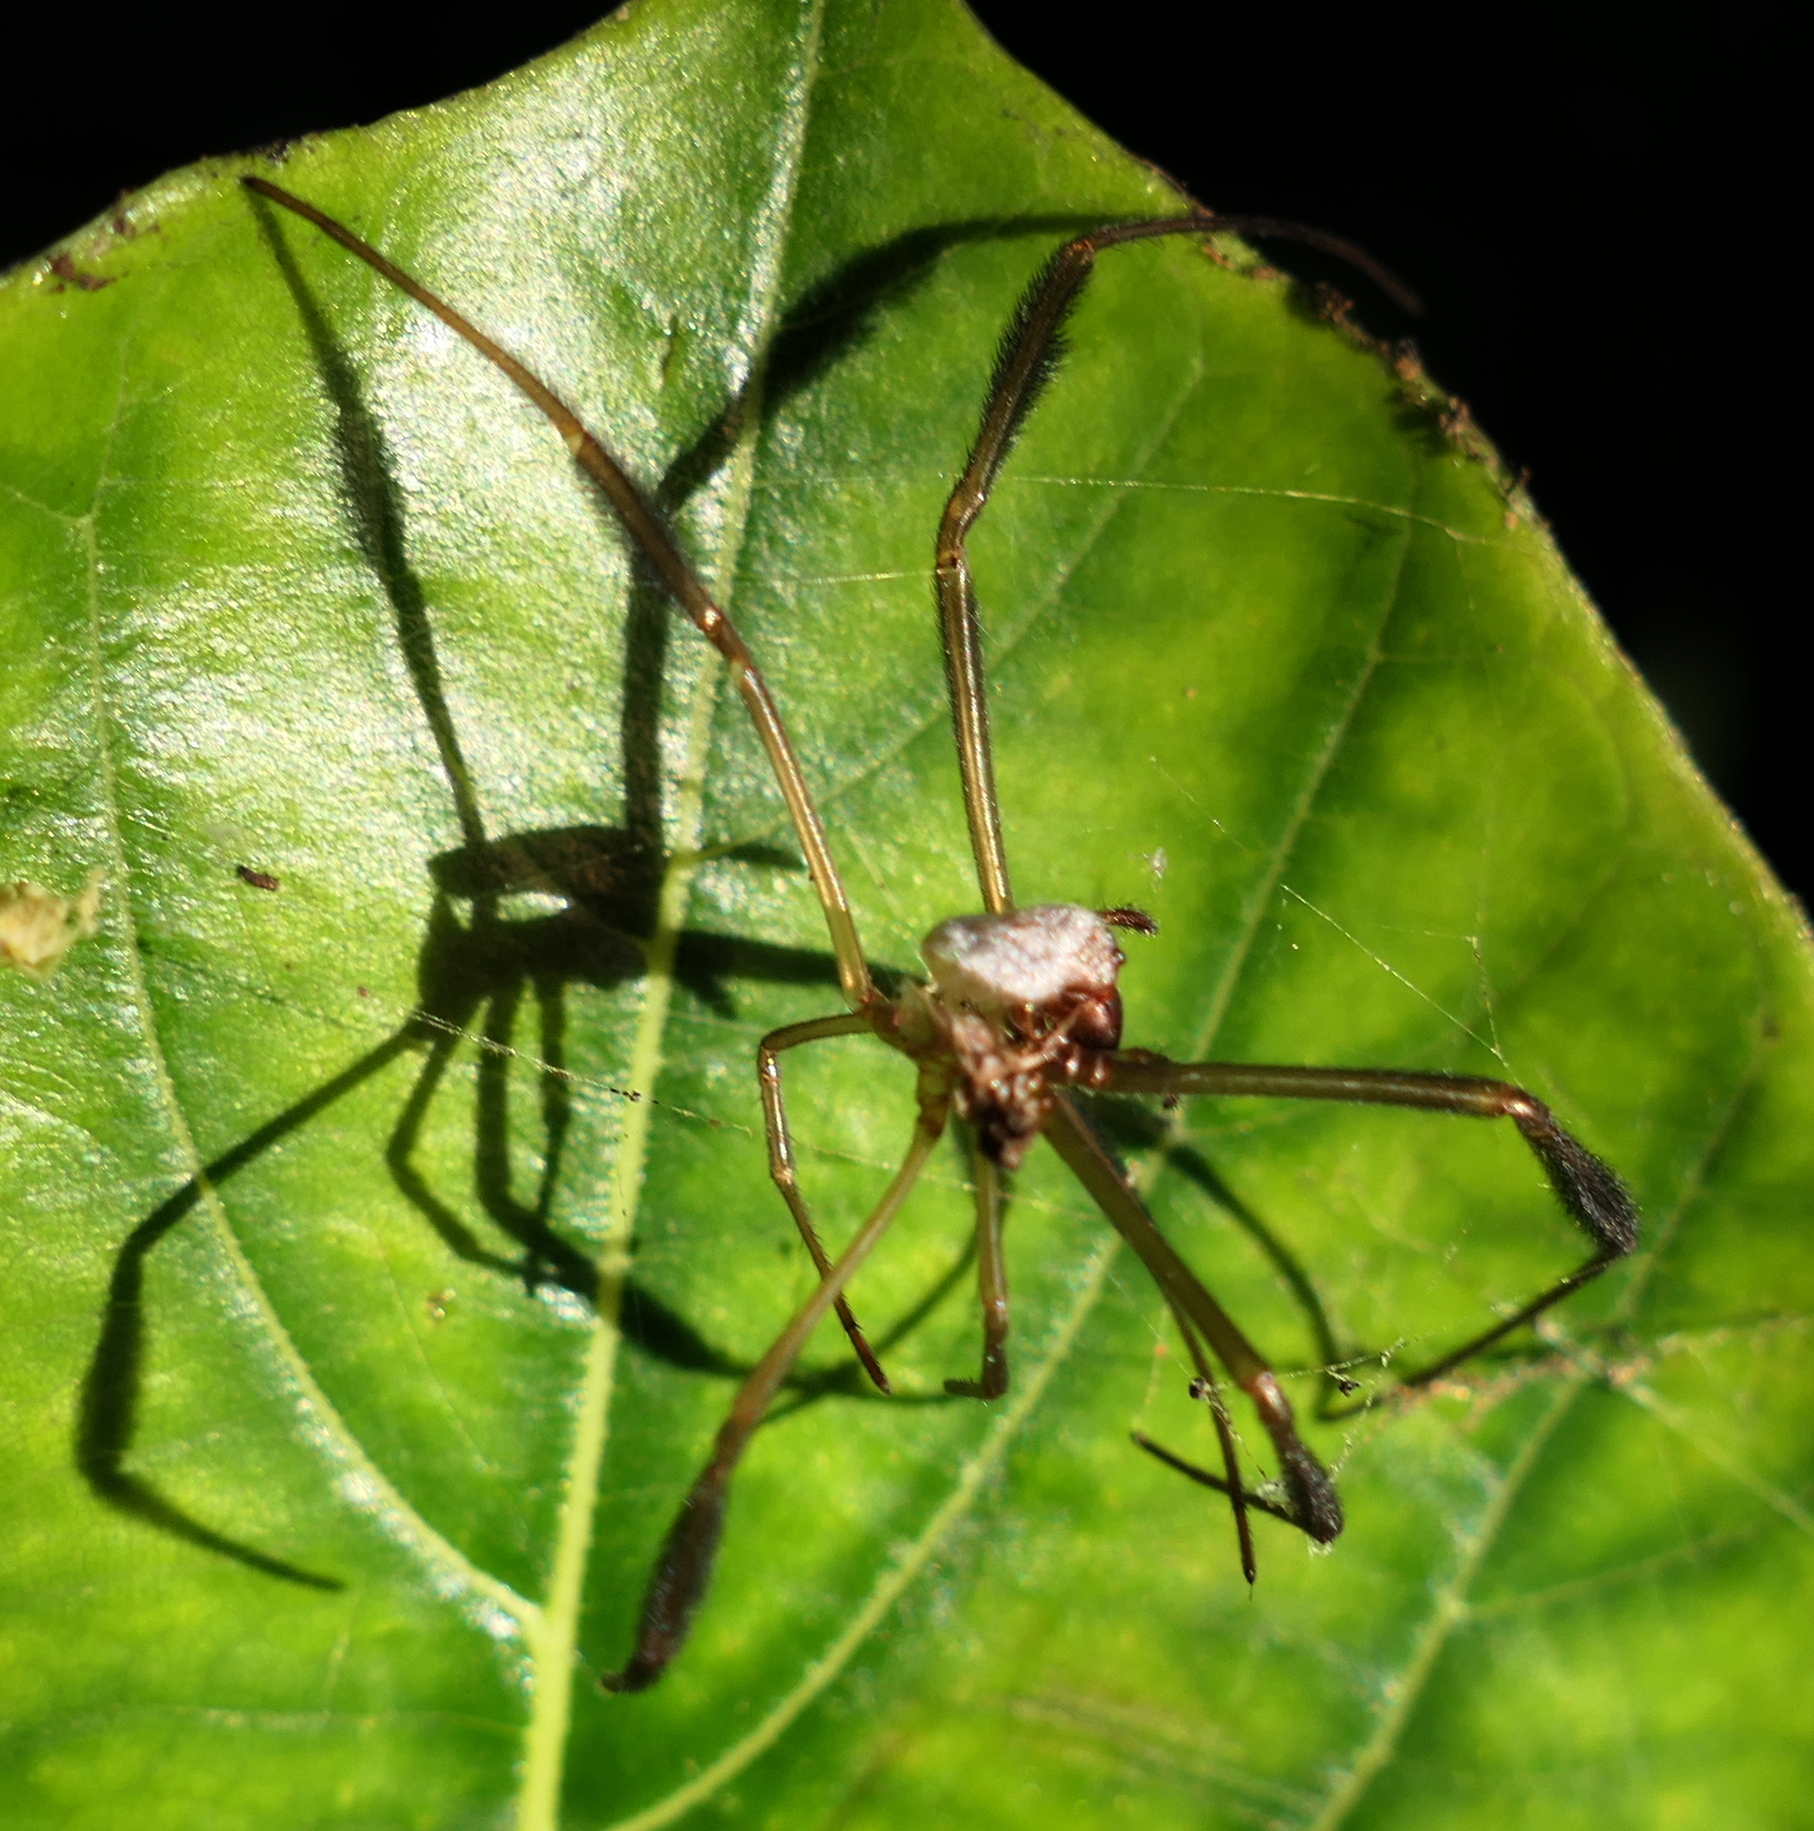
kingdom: Animalia
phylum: Arthropoda
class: Arachnida
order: Araneae
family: Araneidae
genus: Trichonephila
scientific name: Trichonephila clavipes
